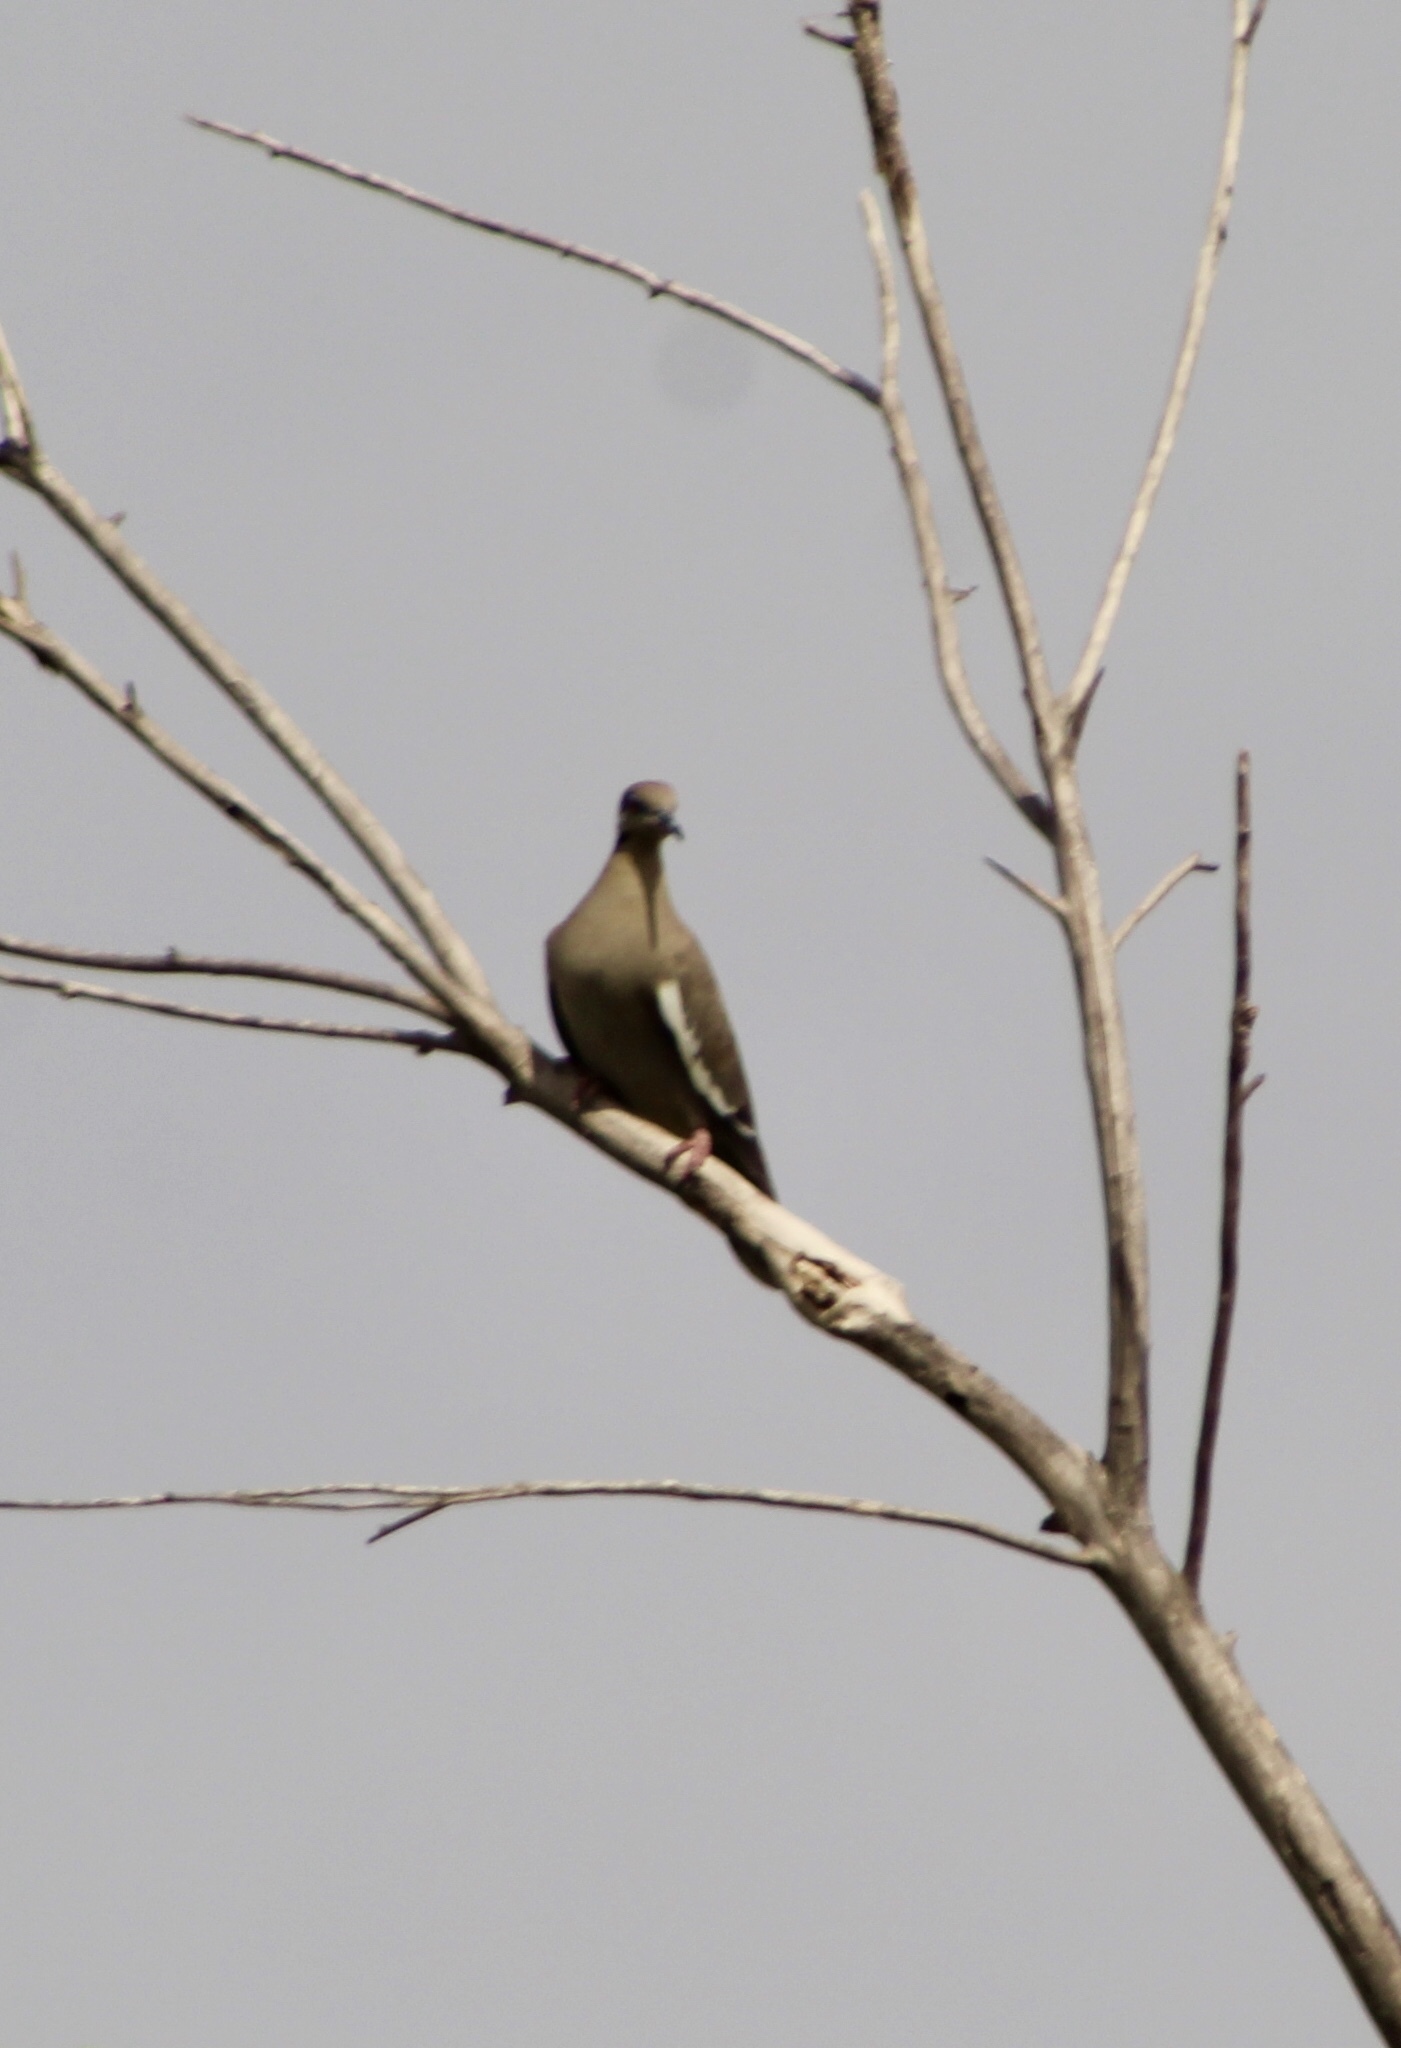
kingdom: Animalia
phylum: Chordata
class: Aves
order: Columbiformes
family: Columbidae
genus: Zenaida
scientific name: Zenaida asiatica
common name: White-winged dove
